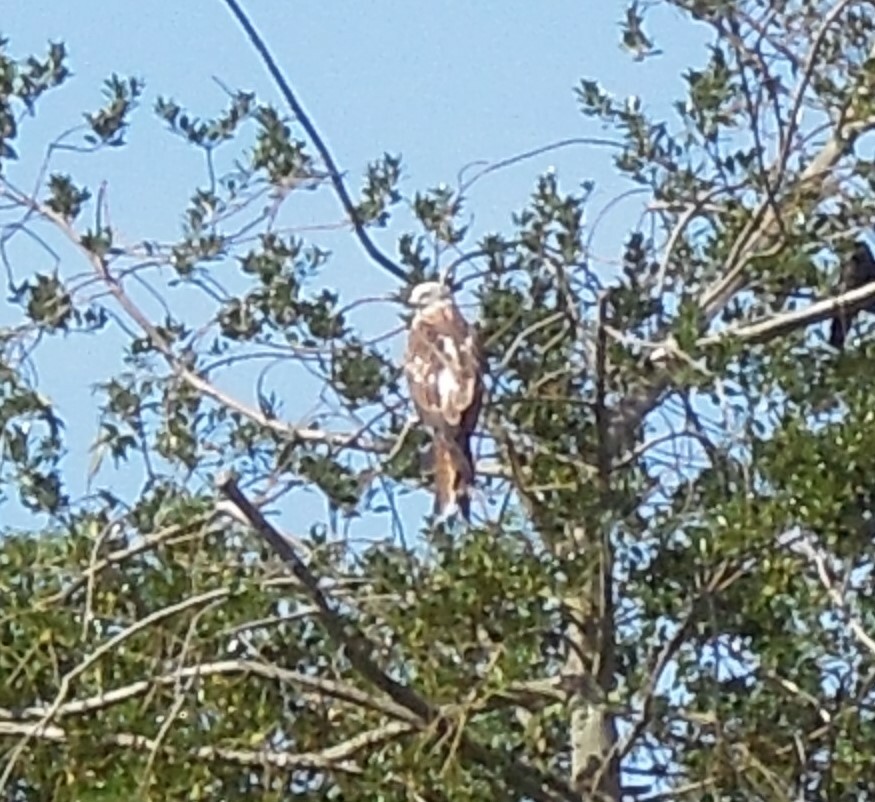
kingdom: Animalia
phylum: Chordata
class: Aves
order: Accipitriformes
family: Accipitridae
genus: Milvus
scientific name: Milvus milvus
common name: Red kite
